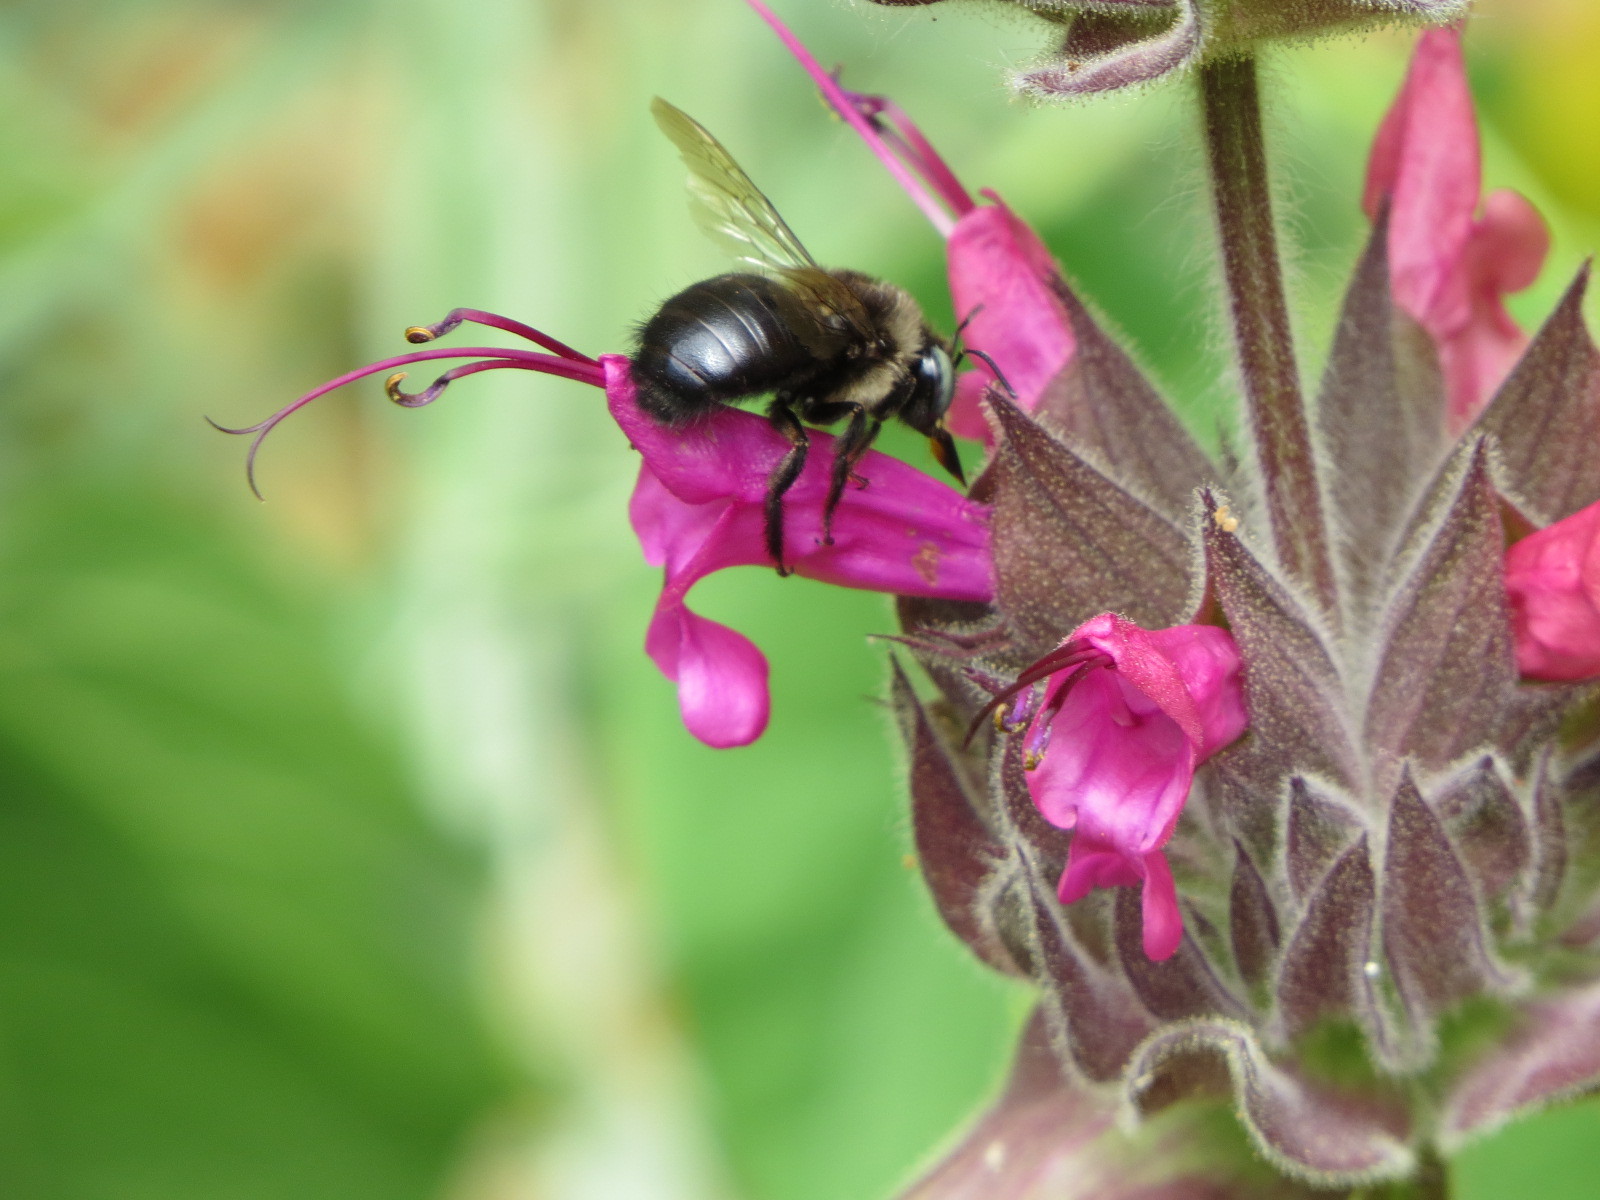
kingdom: Animalia
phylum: Arthropoda
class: Insecta
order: Hymenoptera
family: Apidae
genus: Xylocopa
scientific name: Xylocopa tabaniformis
